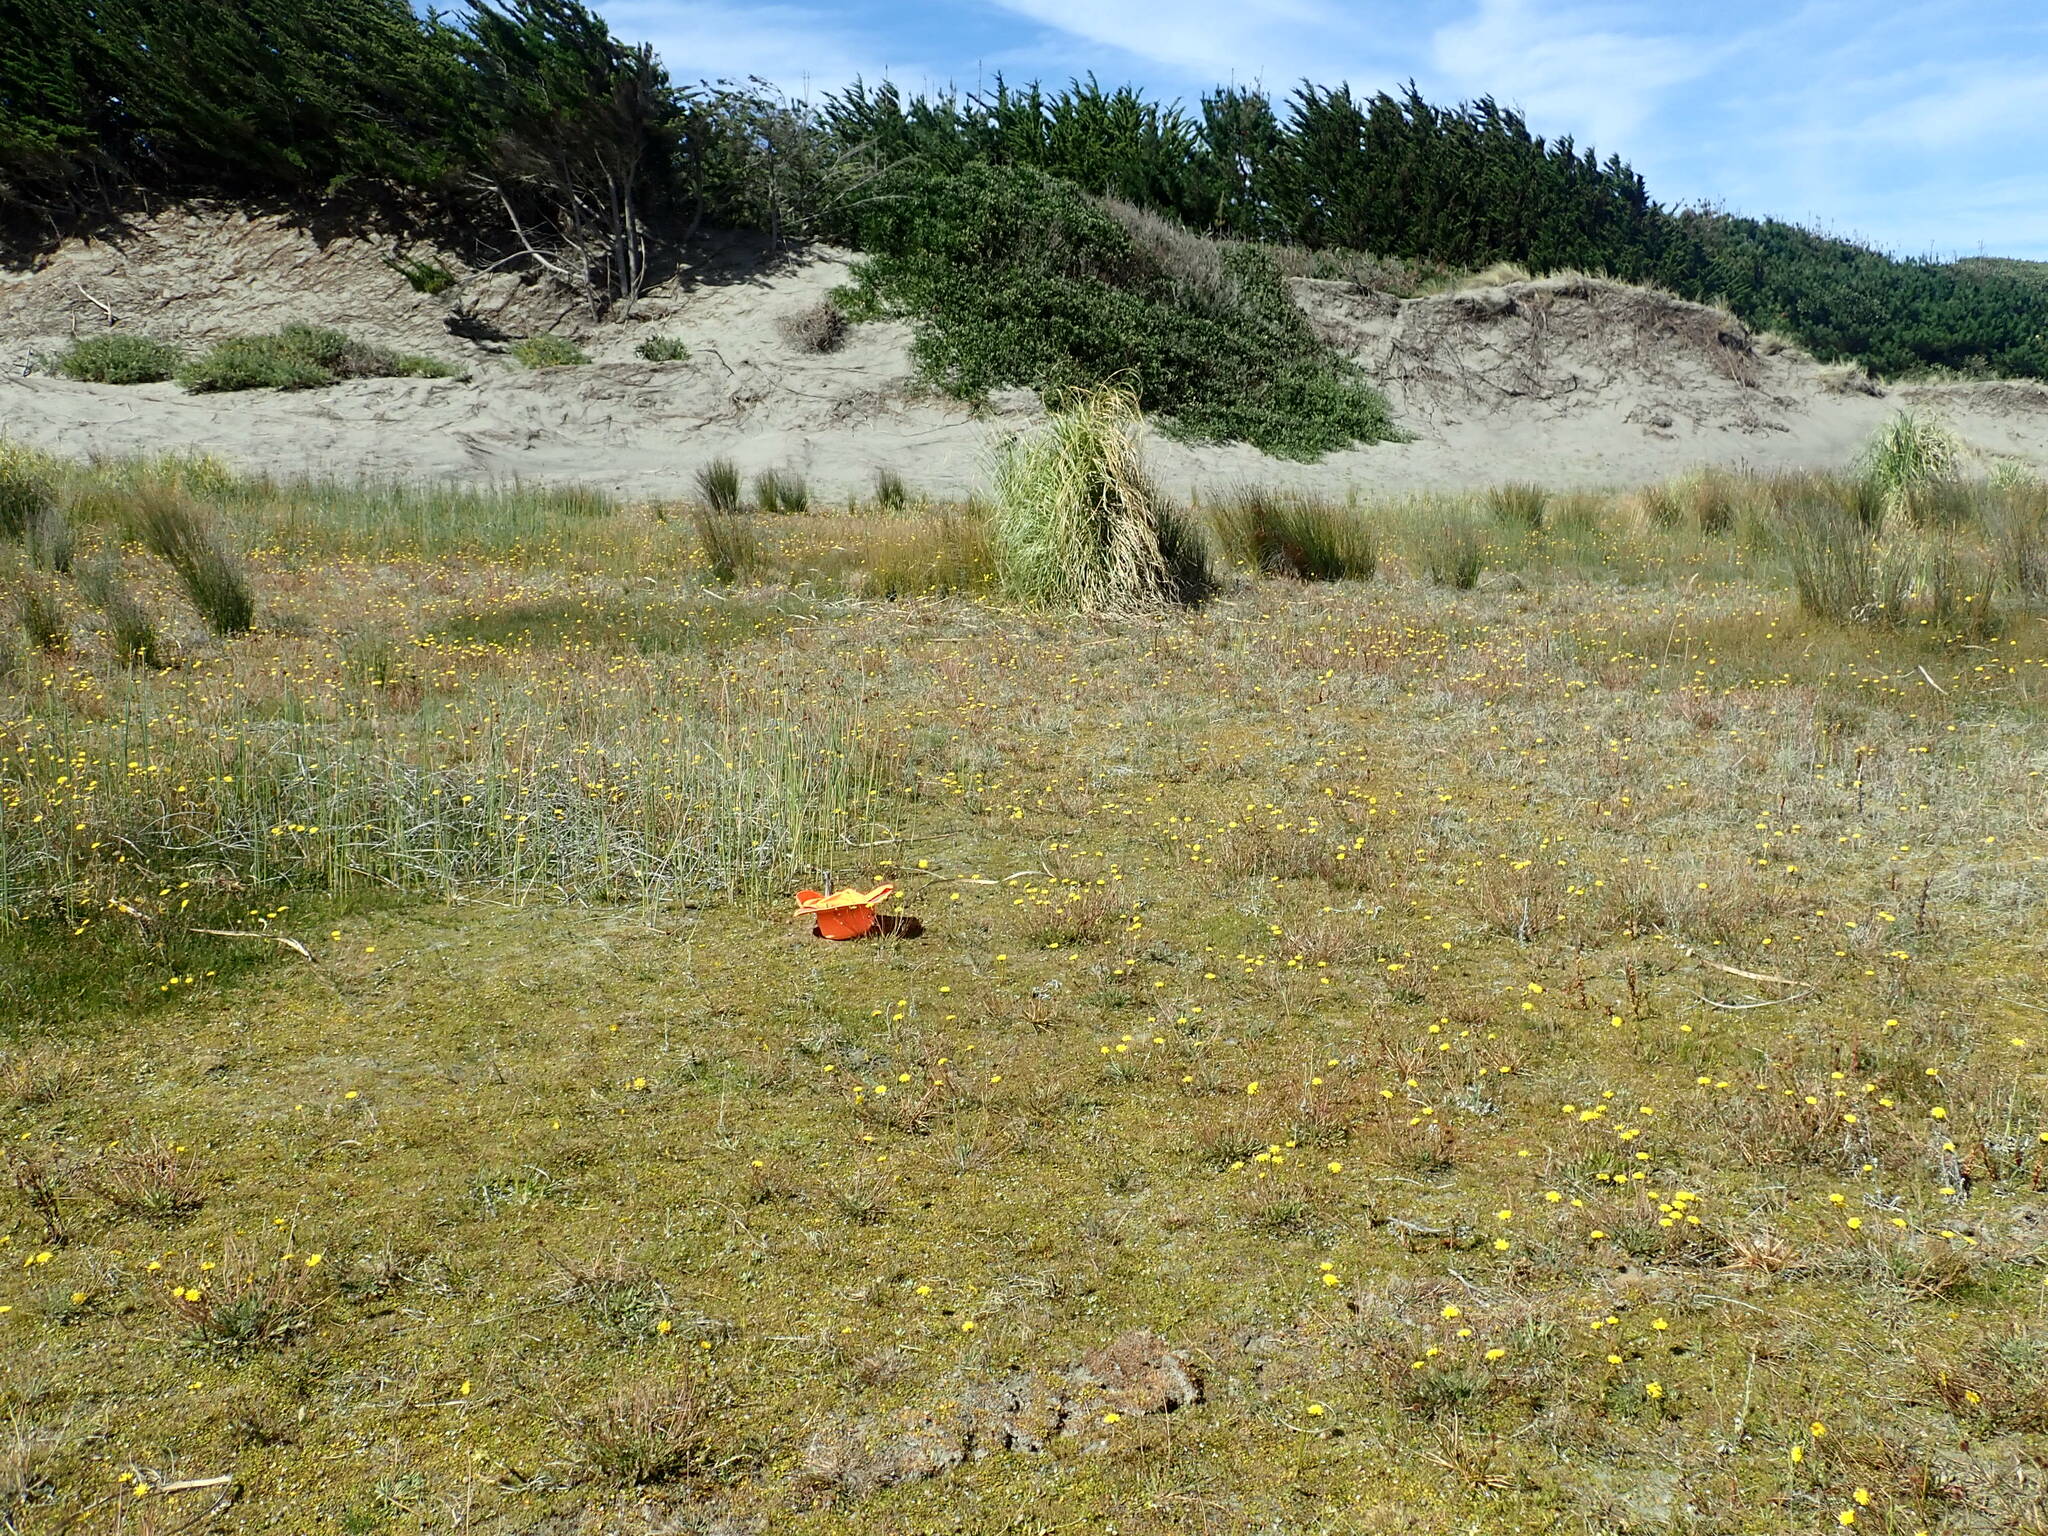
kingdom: Plantae
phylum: Tracheophyta
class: Liliopsida
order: Poales
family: Juncaceae
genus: Juncus
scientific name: Juncus caespiticius
